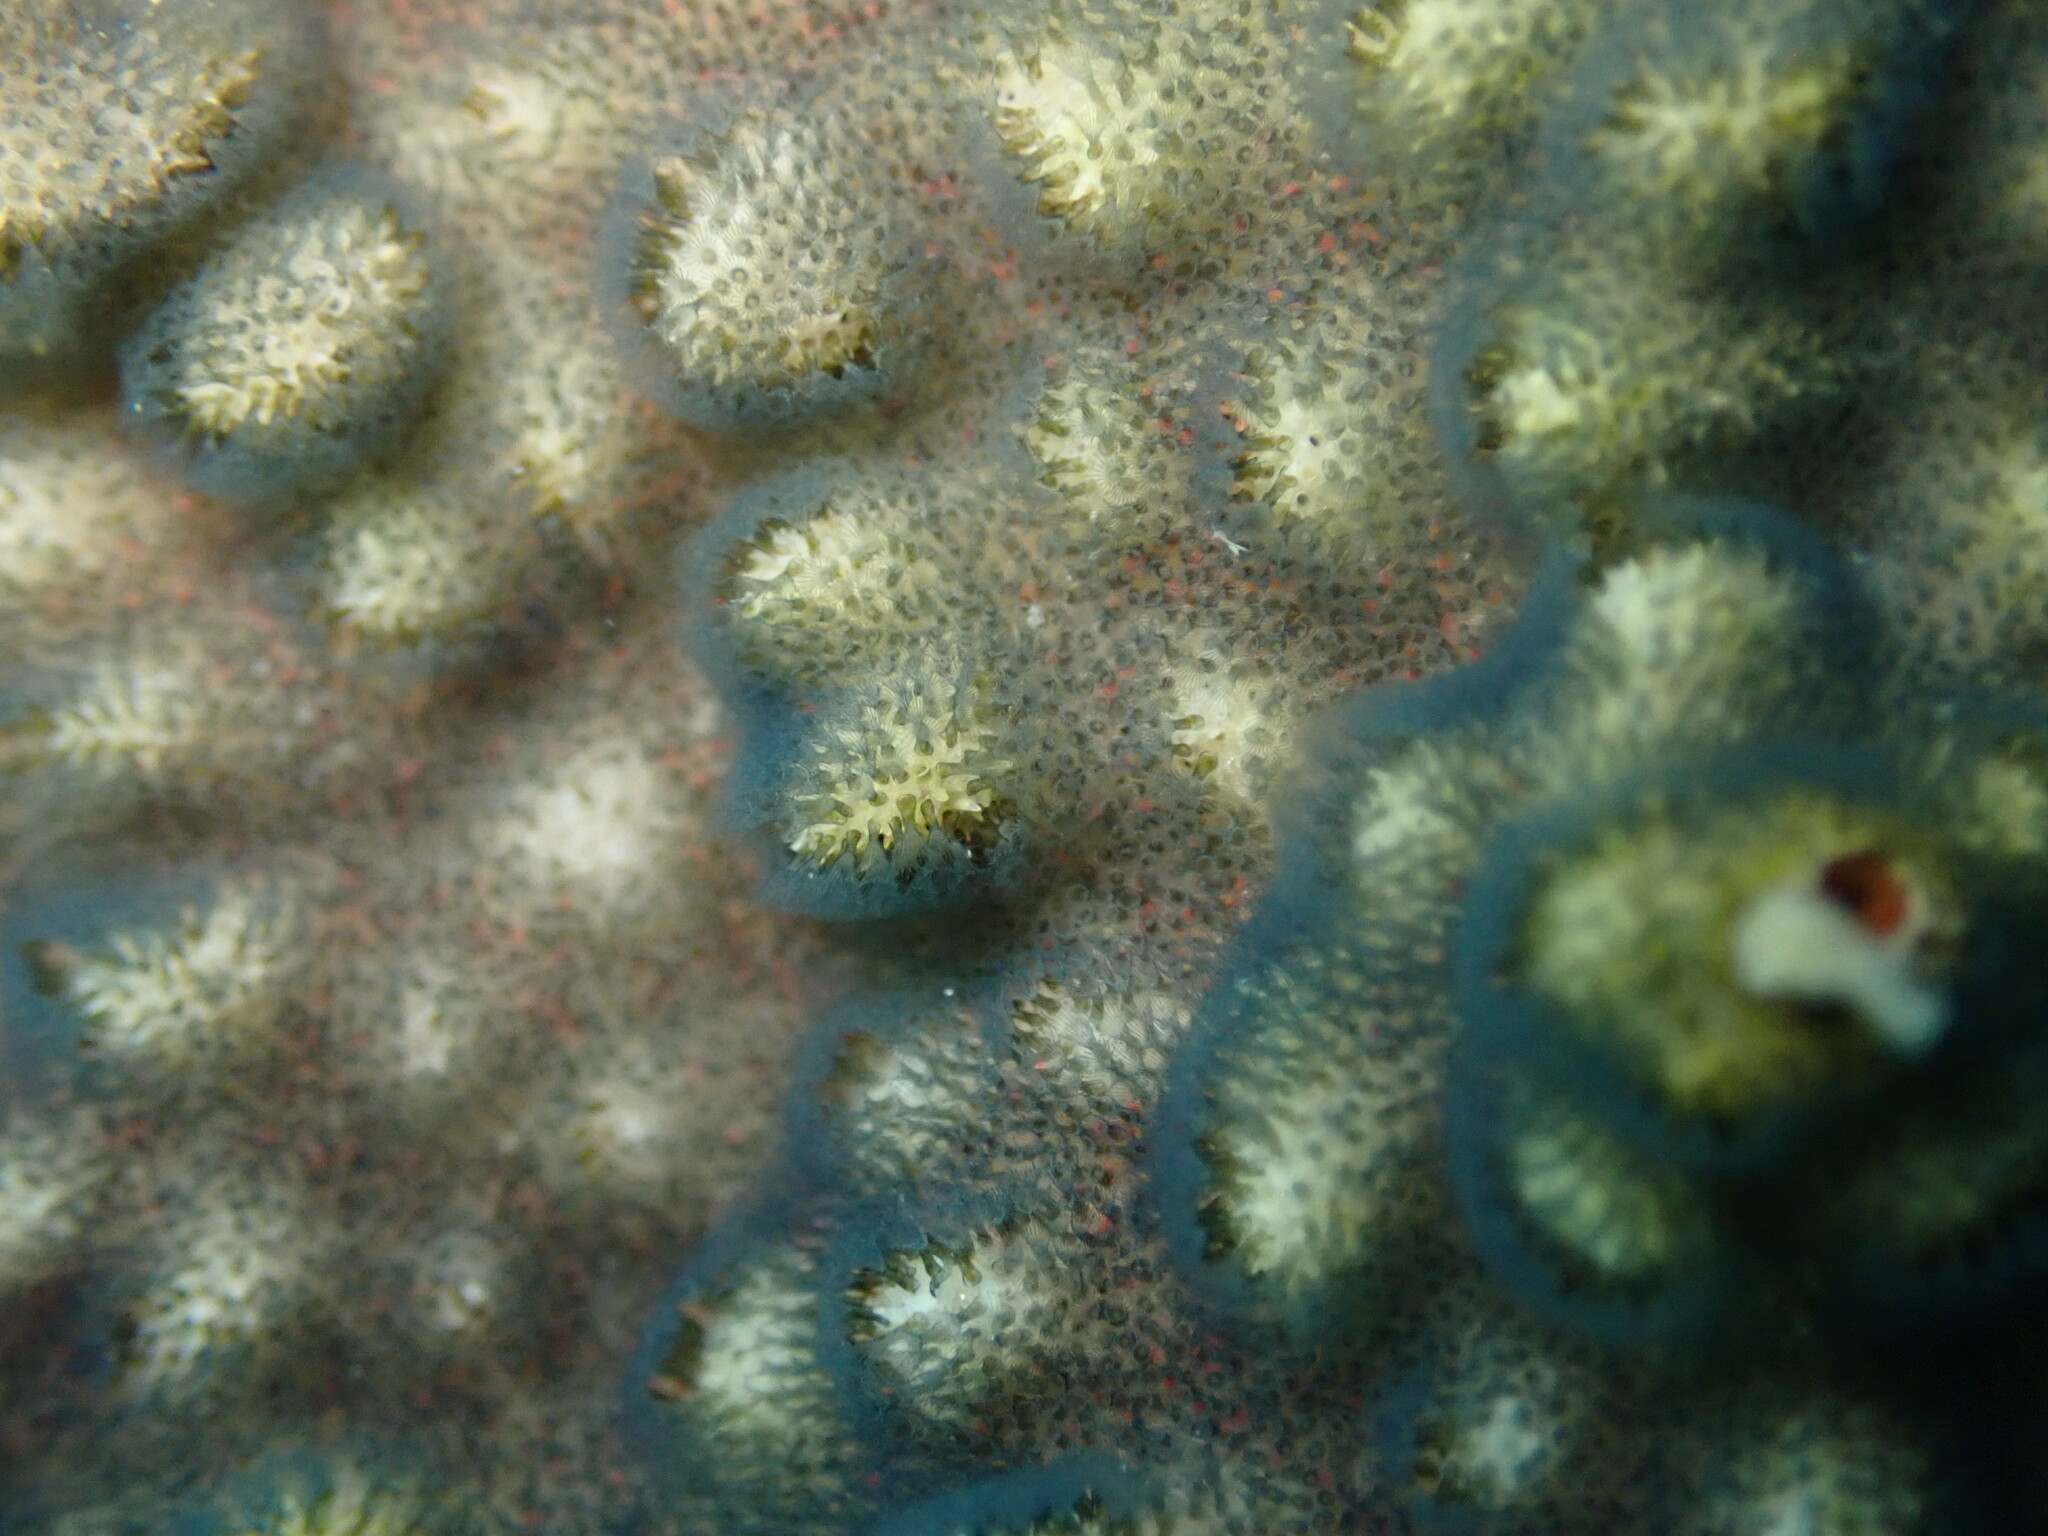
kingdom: Animalia
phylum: Bryozoa
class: Gymnolaemata
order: Cheilostomatida
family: Celleporidae
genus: Celleporaria
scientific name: Celleporaria nodulosa
